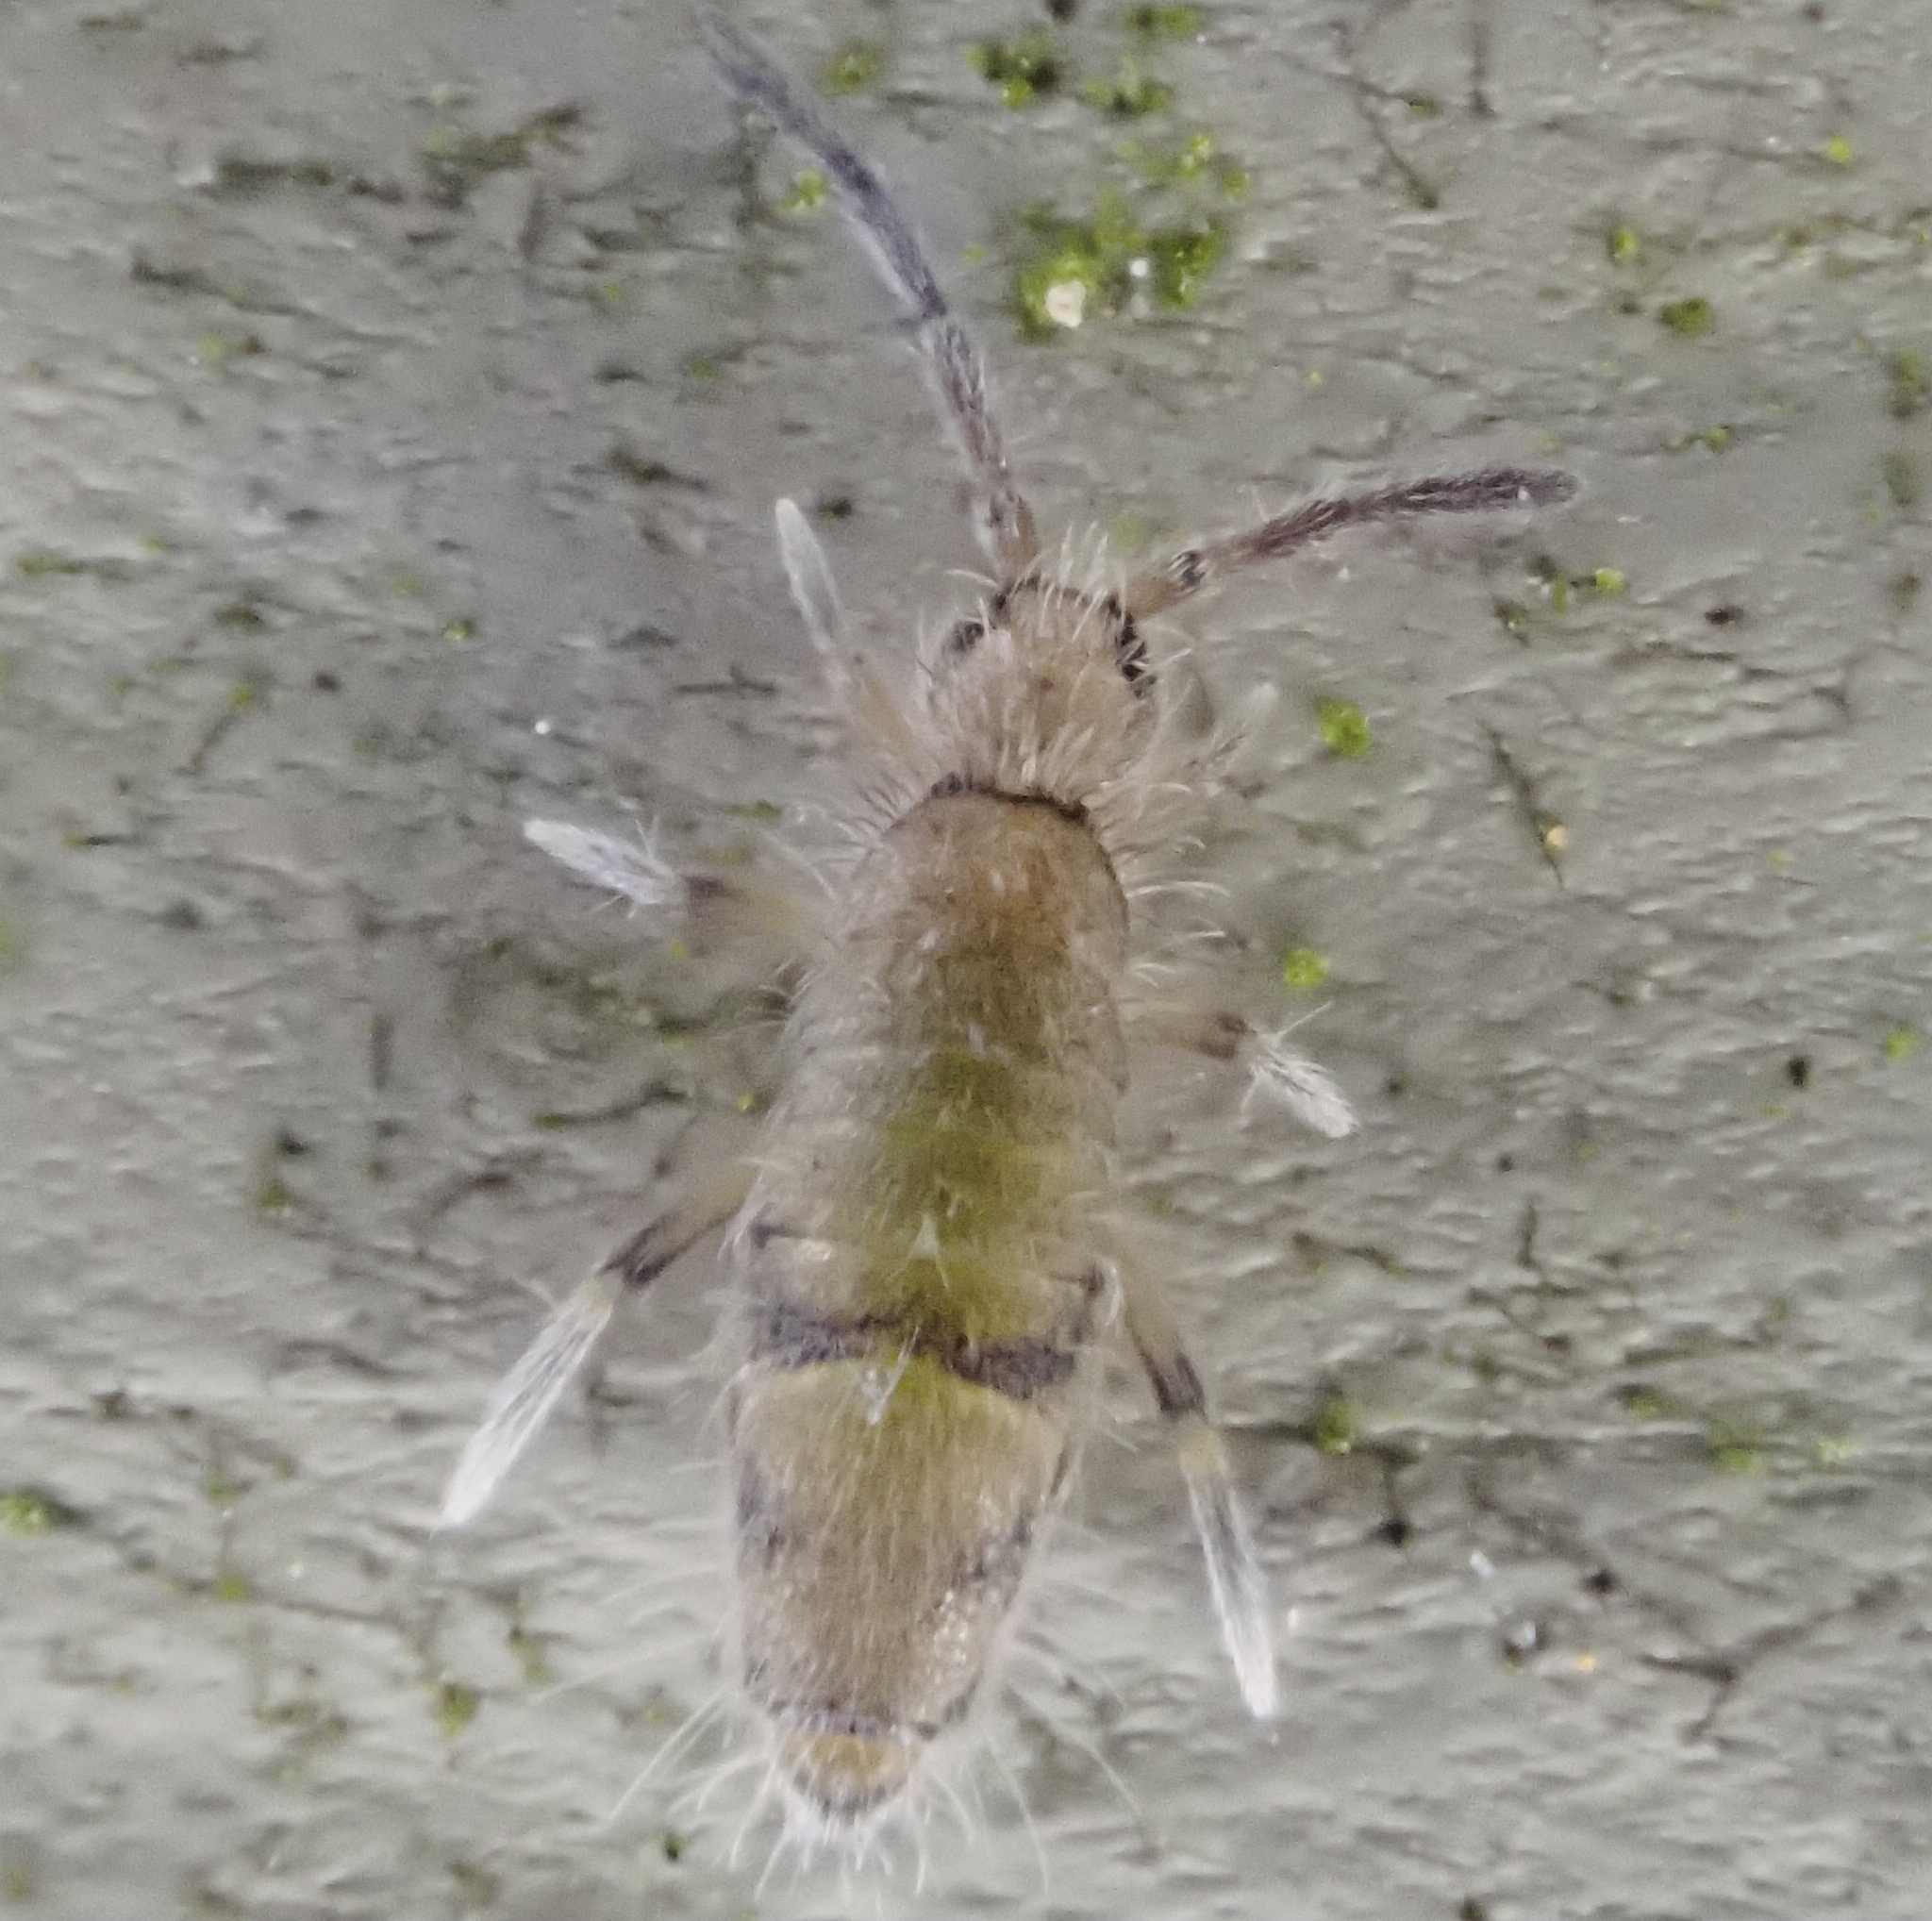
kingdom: Animalia
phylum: Arthropoda
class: Collembola
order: Entomobryomorpha
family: Entomobryidae
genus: Willowsia
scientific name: Willowsia nigromaculata
